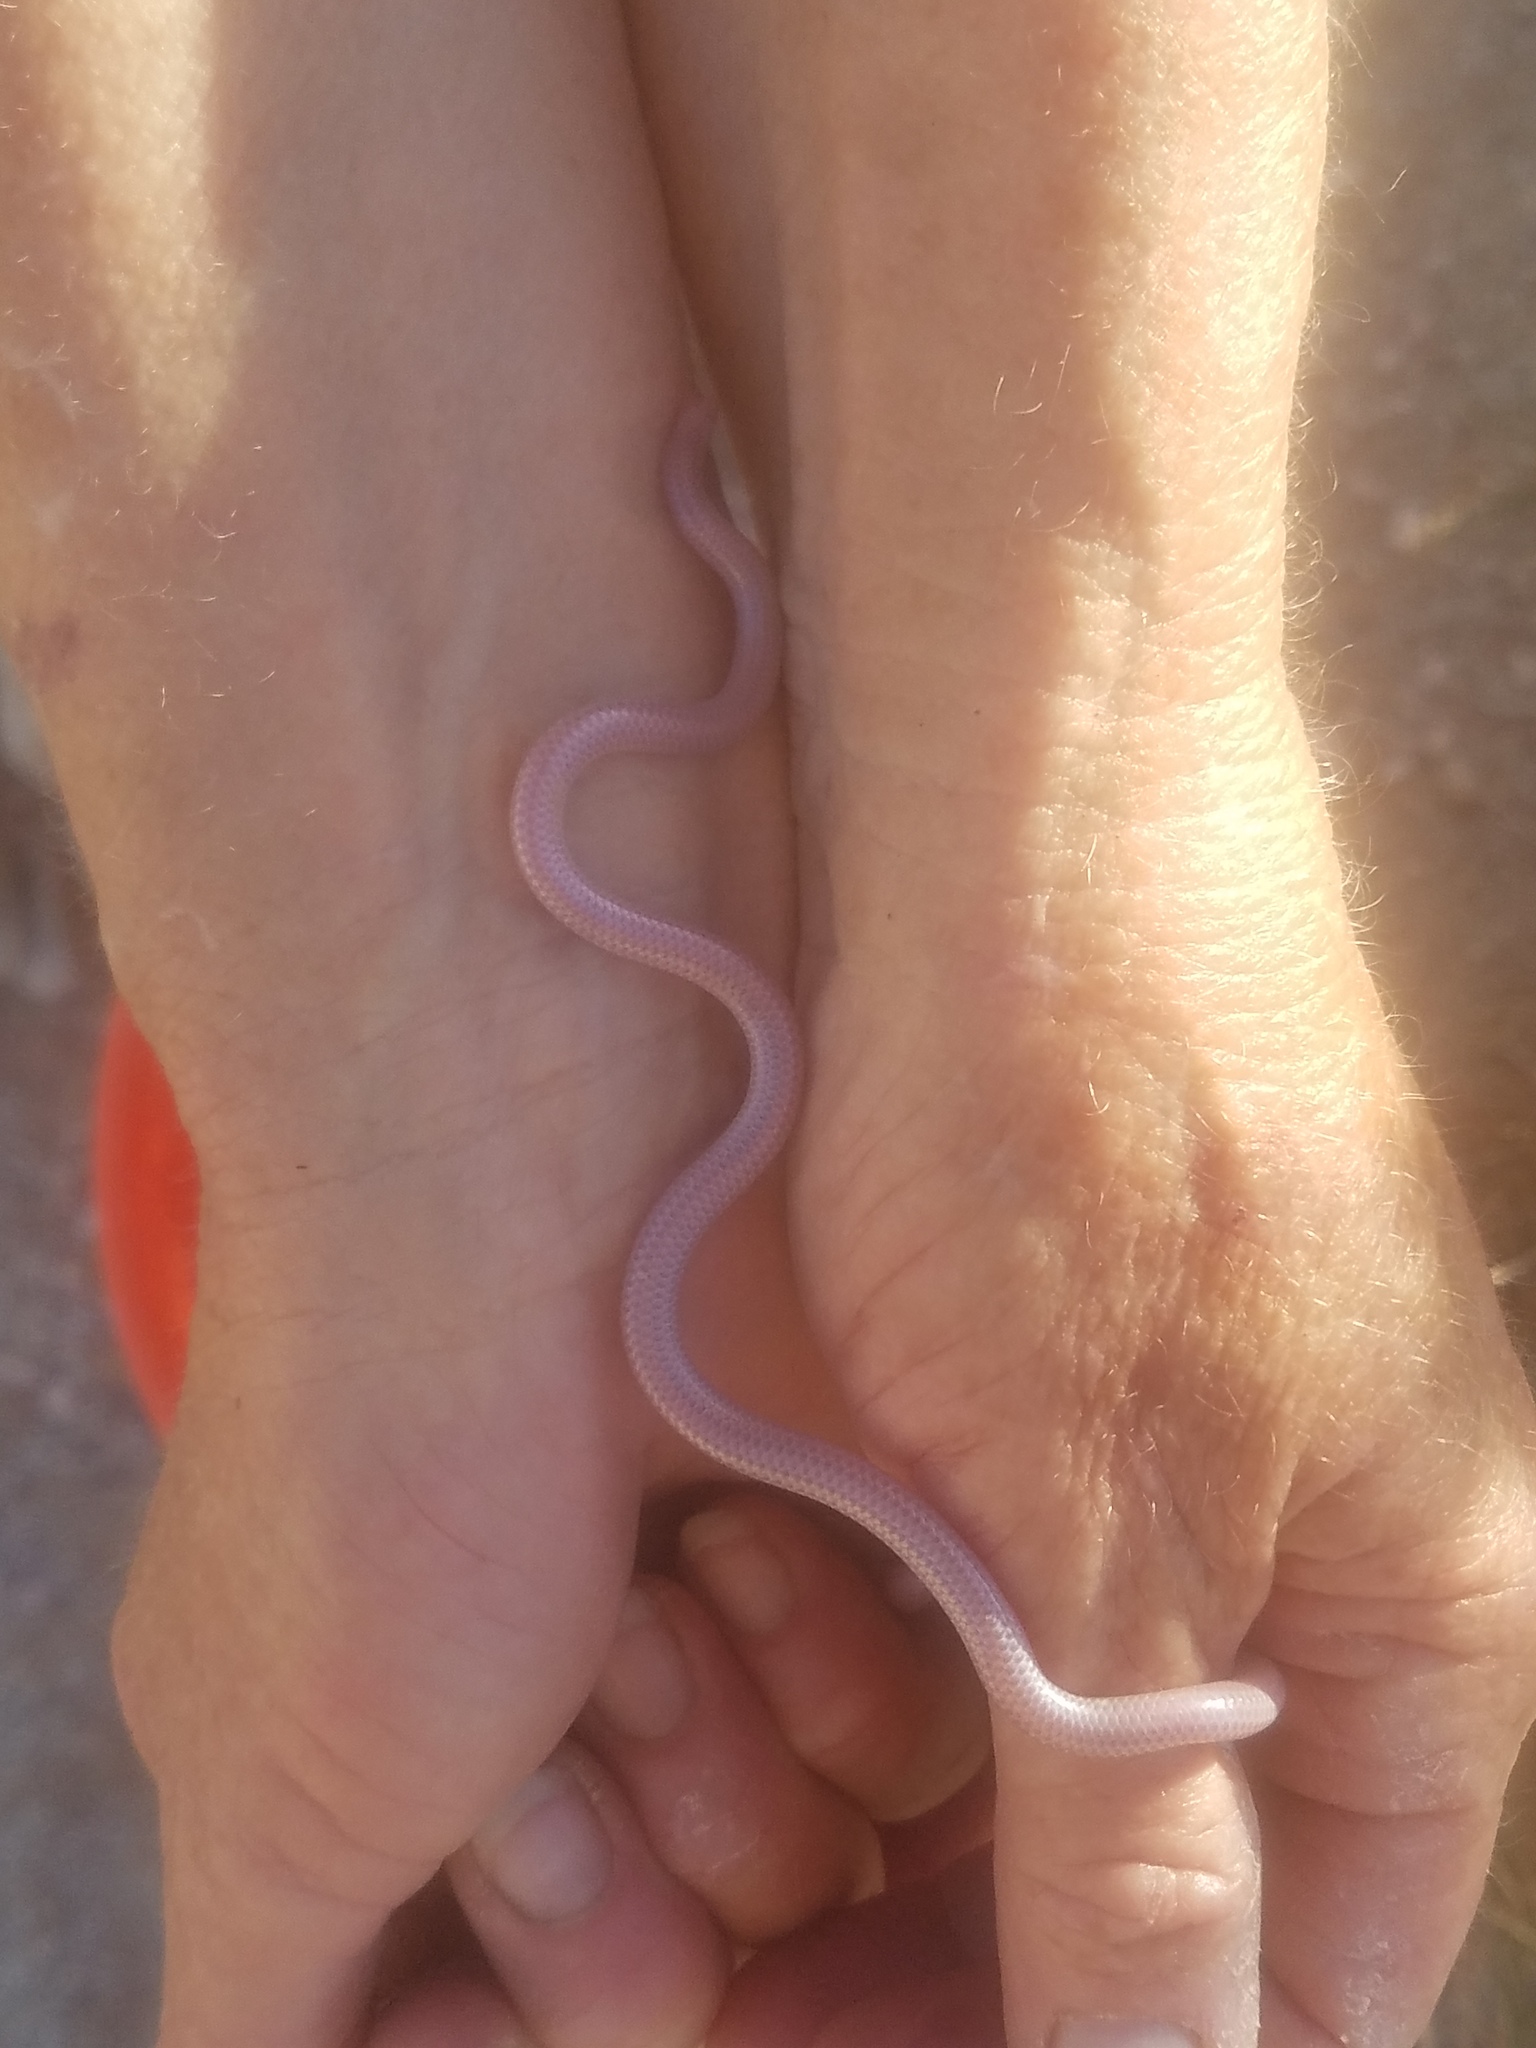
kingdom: Animalia
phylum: Chordata
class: Squamata
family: Leptotyphlopidae
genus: Rena
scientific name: Rena humilis
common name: Western threadsnake
